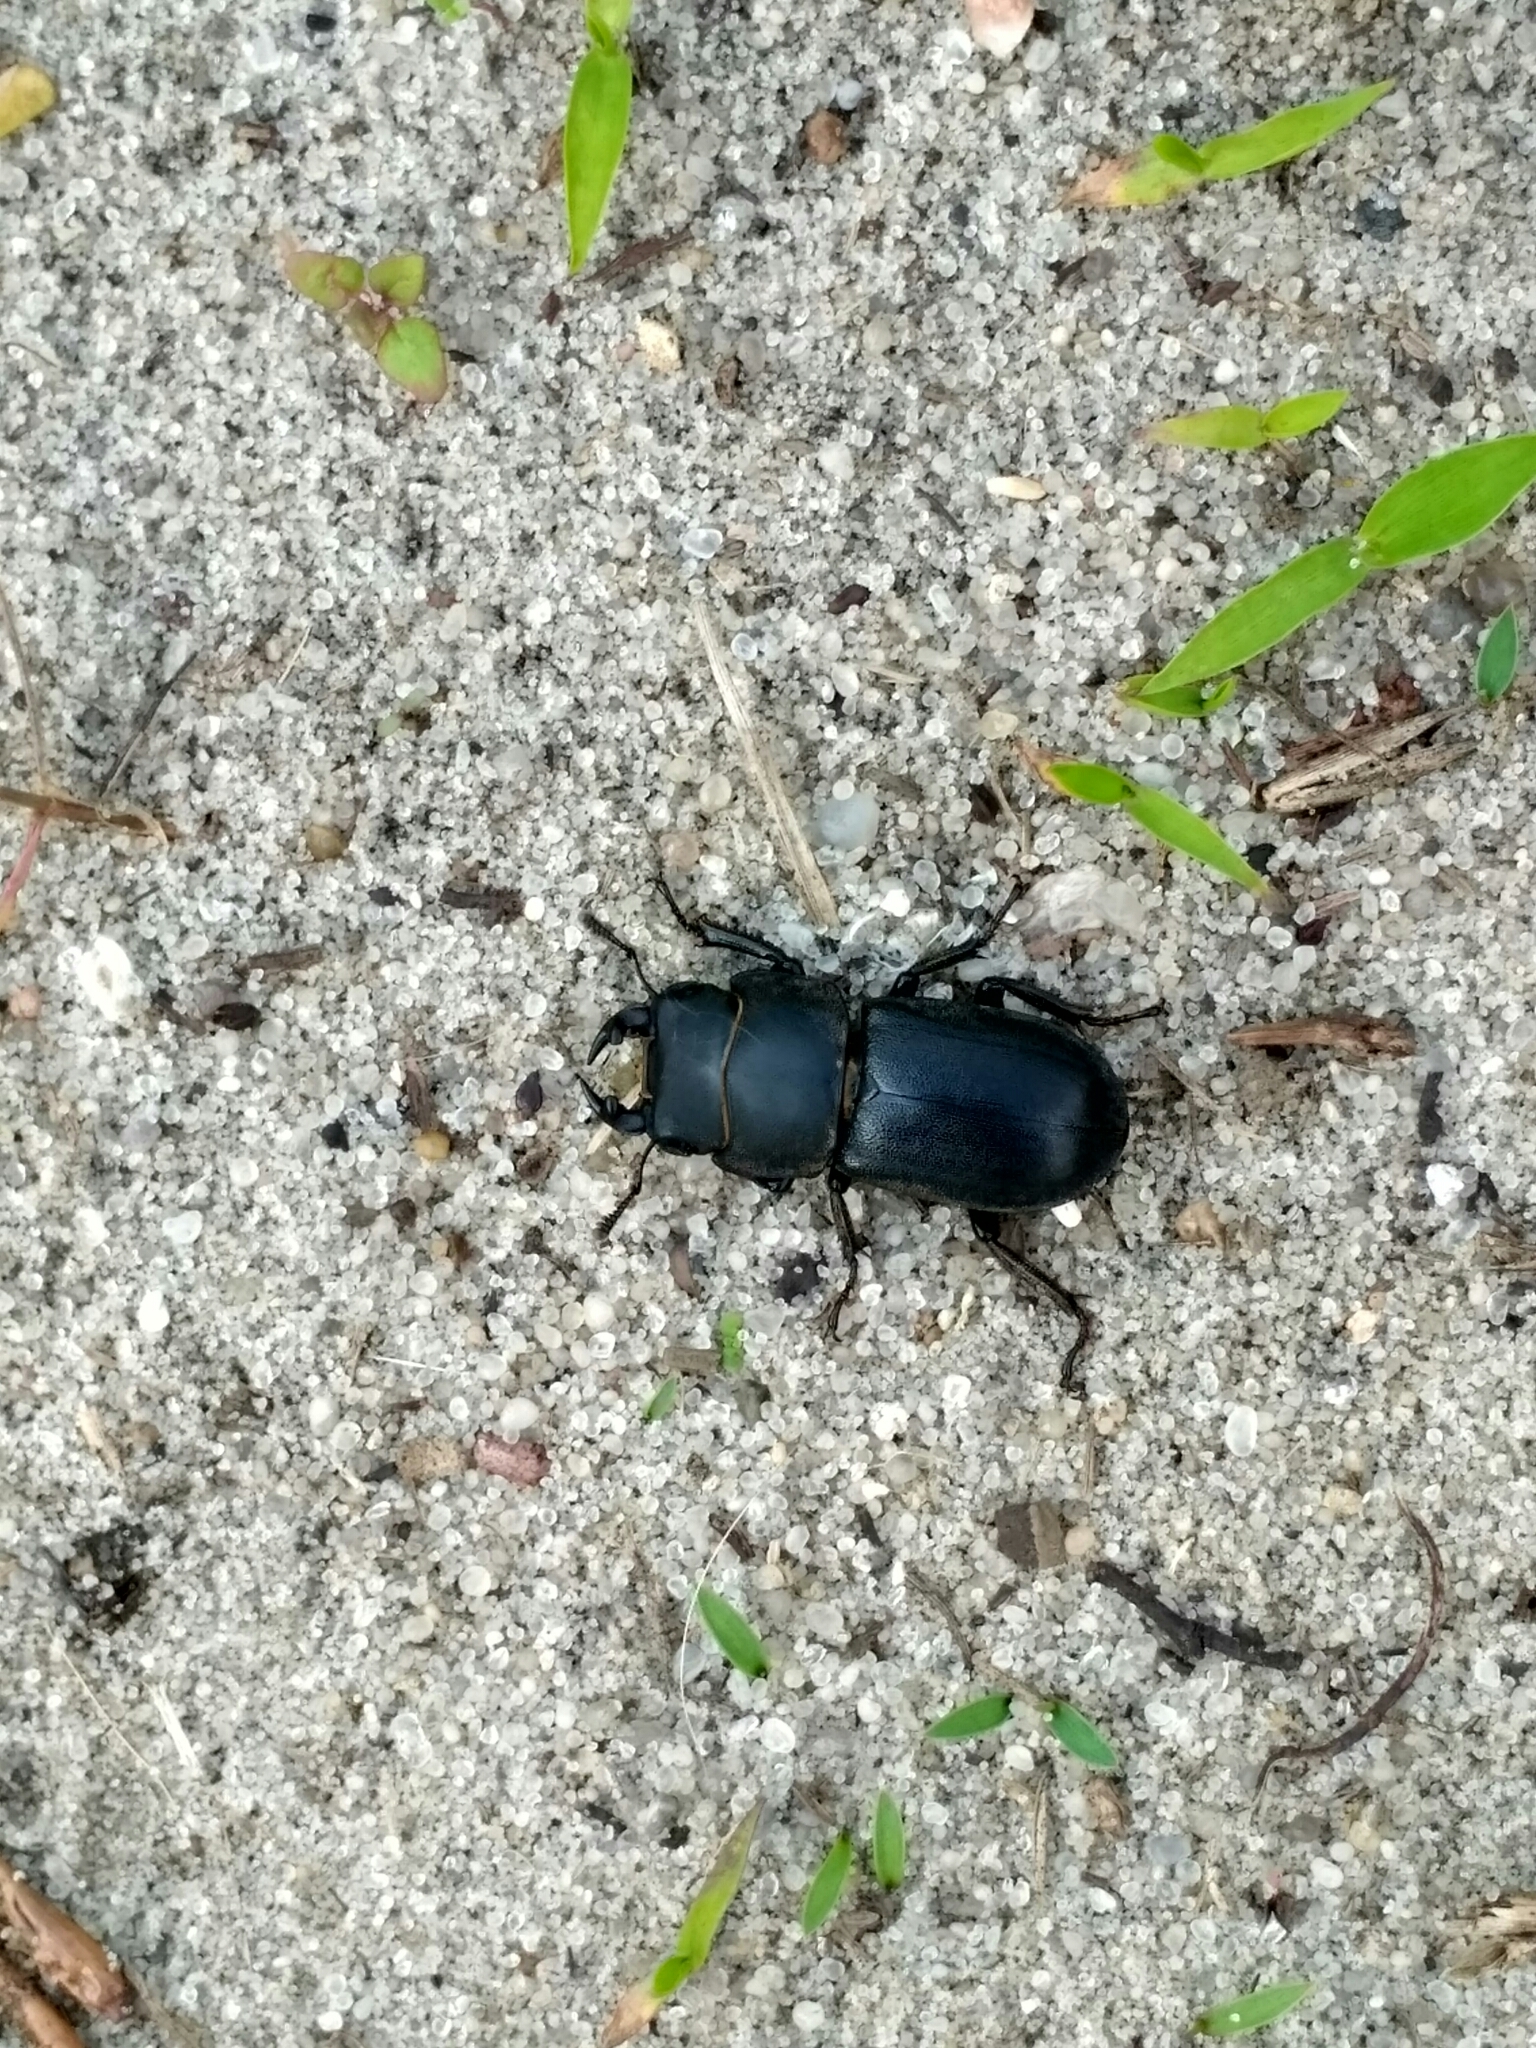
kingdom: Animalia
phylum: Arthropoda
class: Insecta
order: Coleoptera
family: Lucanidae
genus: Dorcus
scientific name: Dorcus parallelipipedus
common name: Lesser stag beetle
